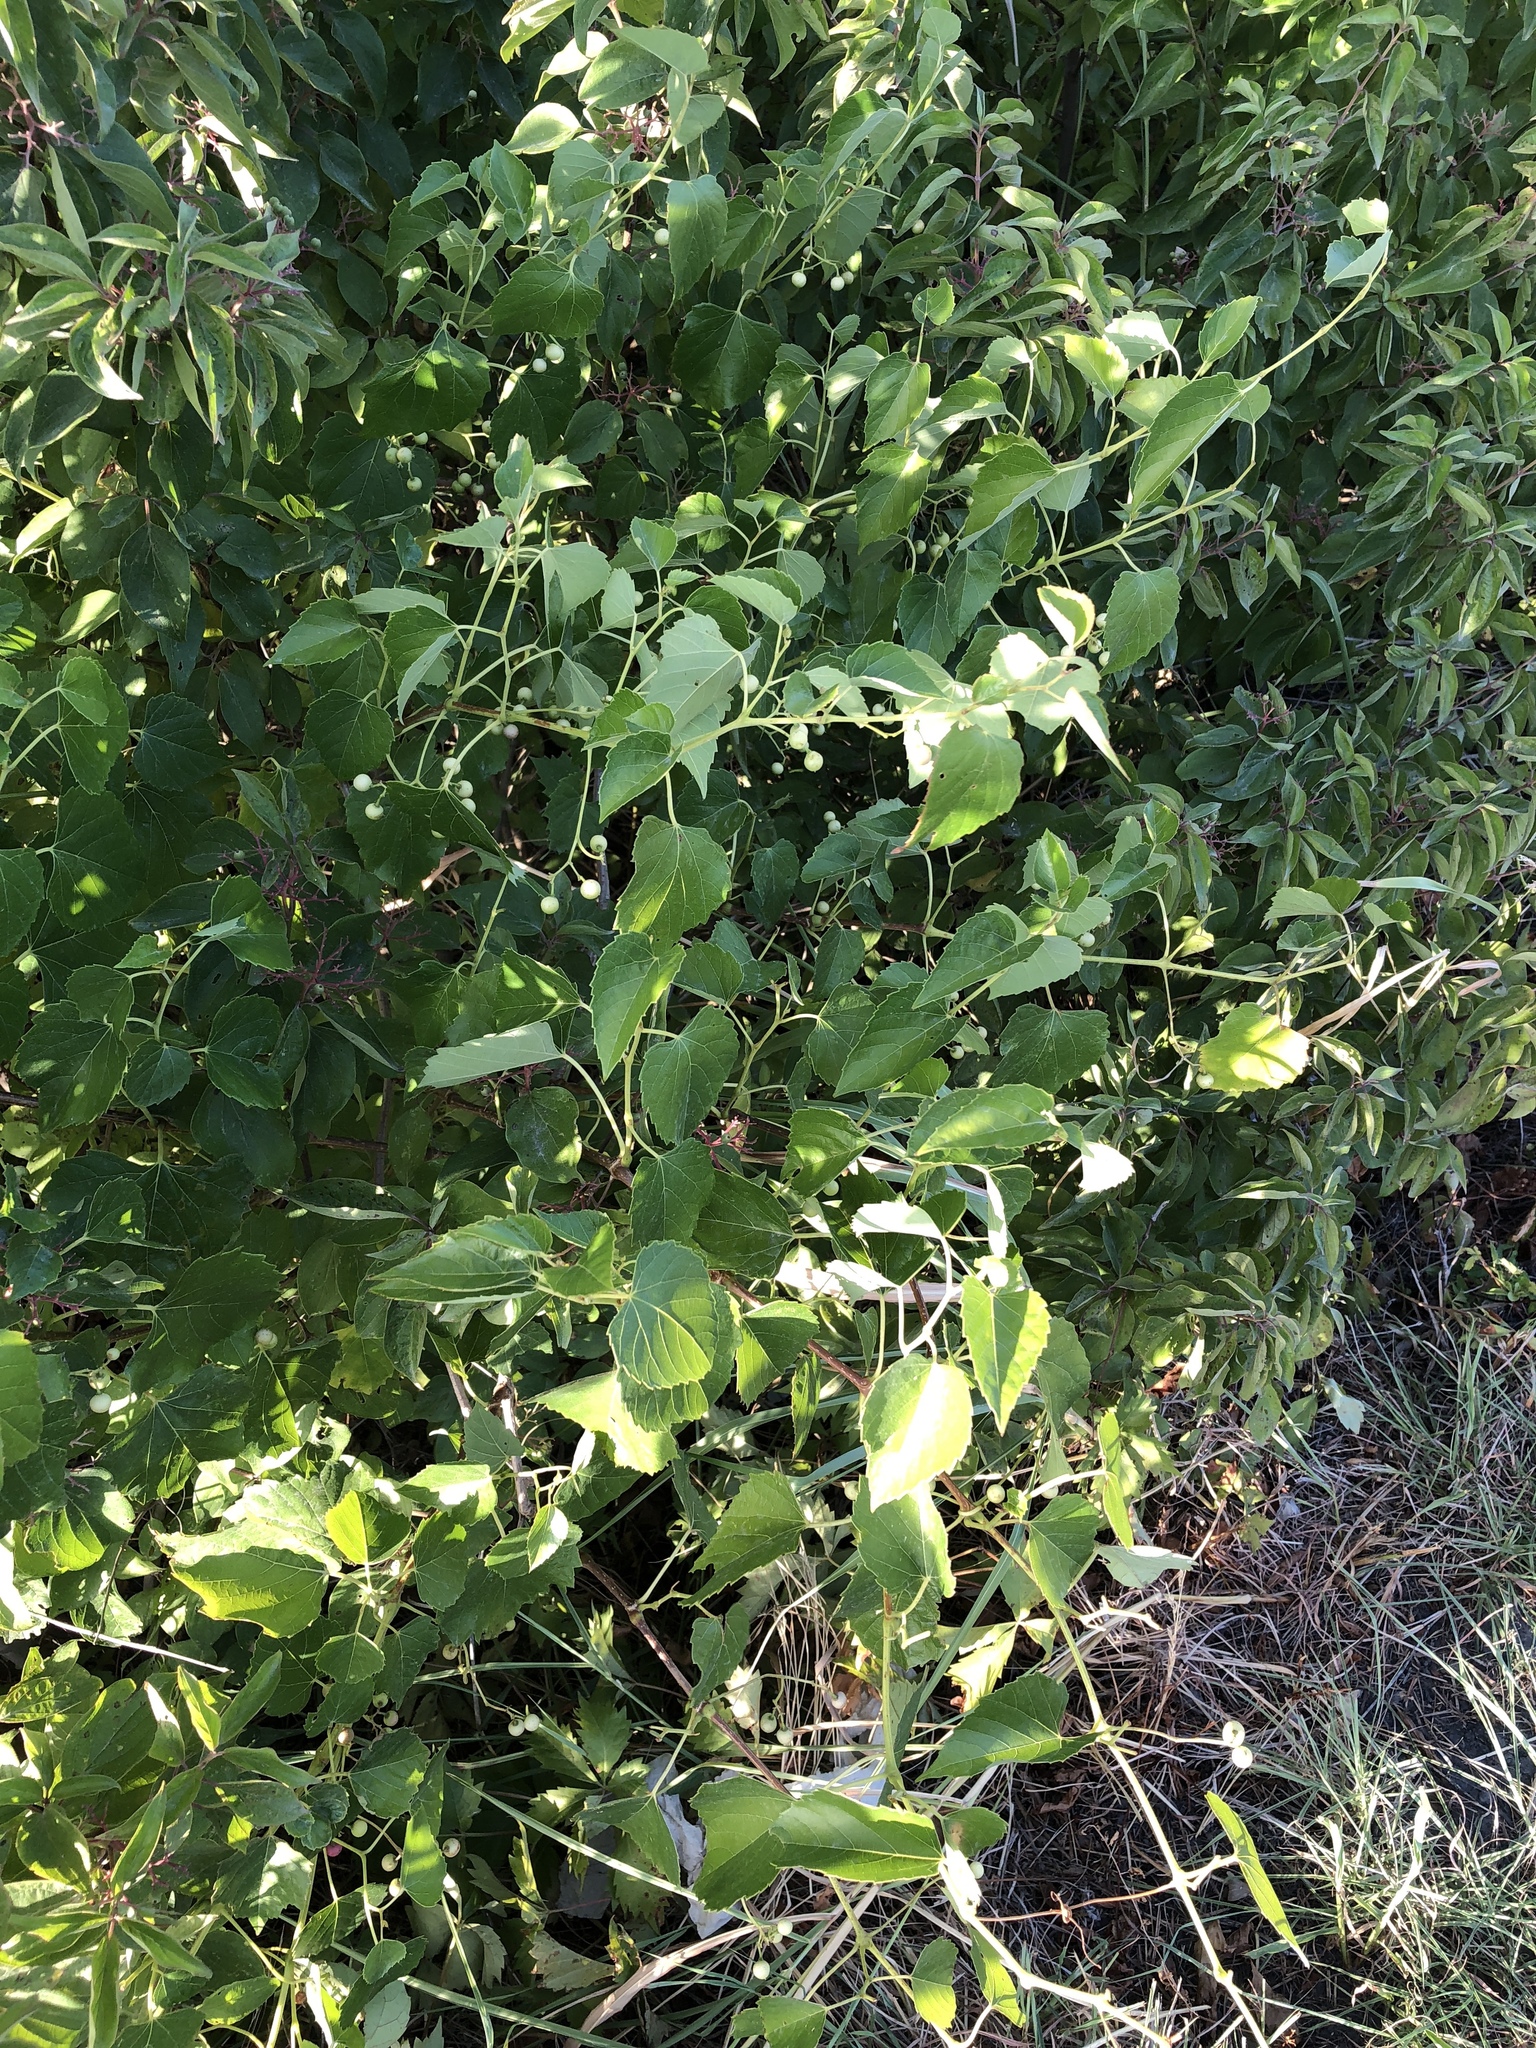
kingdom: Plantae
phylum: Tracheophyta
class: Magnoliopsida
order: Vitales
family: Vitaceae
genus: Ampelopsis
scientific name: Ampelopsis cordata
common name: Heart-leaf ampelopsis
